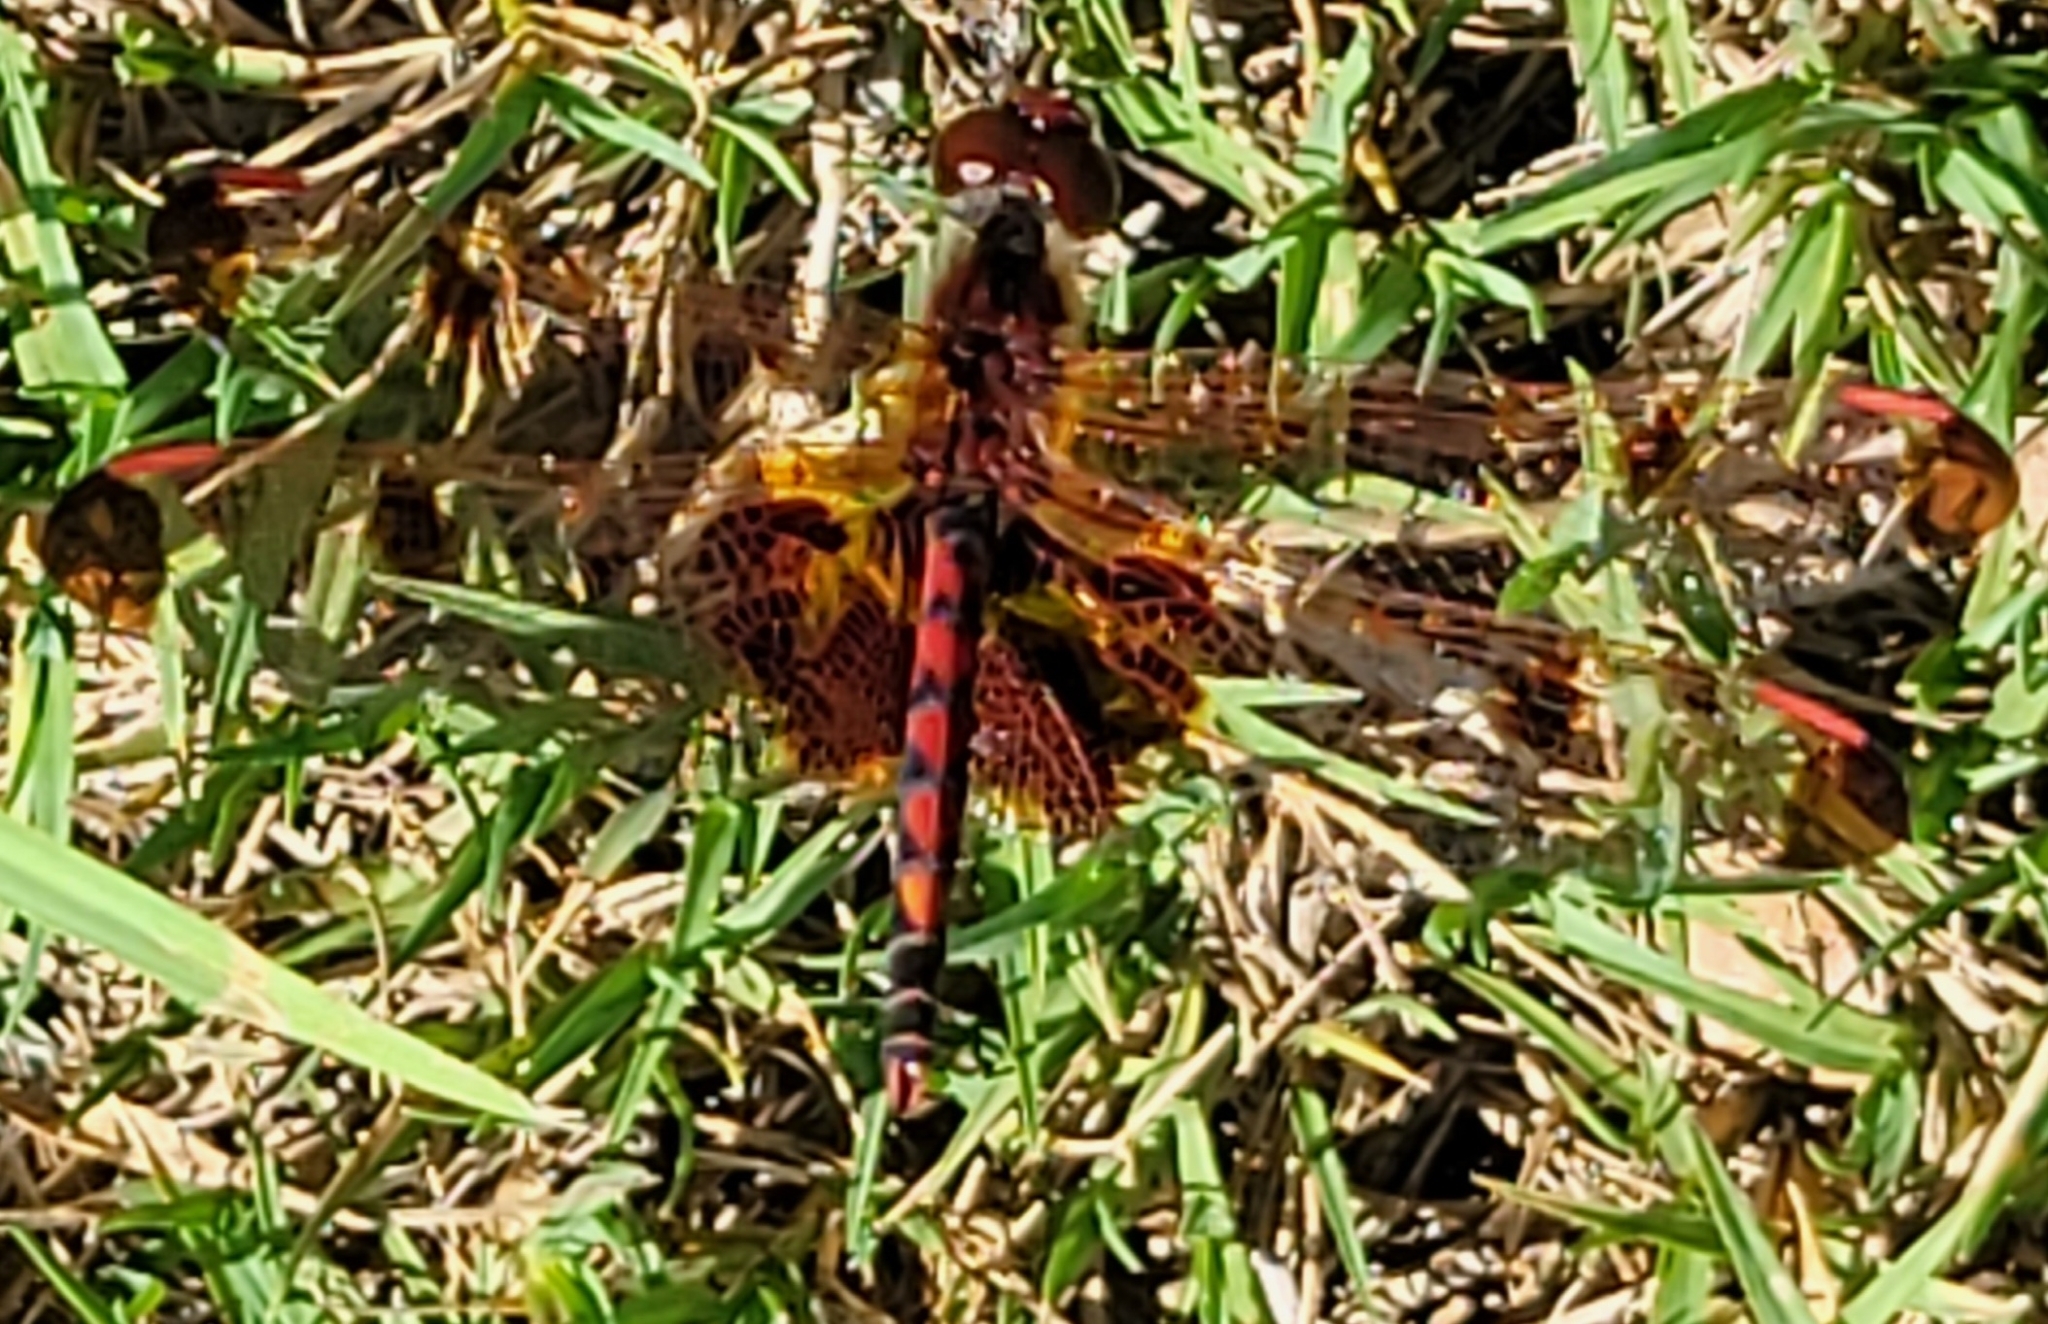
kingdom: Animalia
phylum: Arthropoda
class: Insecta
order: Odonata
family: Libellulidae
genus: Celithemis
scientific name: Celithemis elisa
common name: Calico pennant
